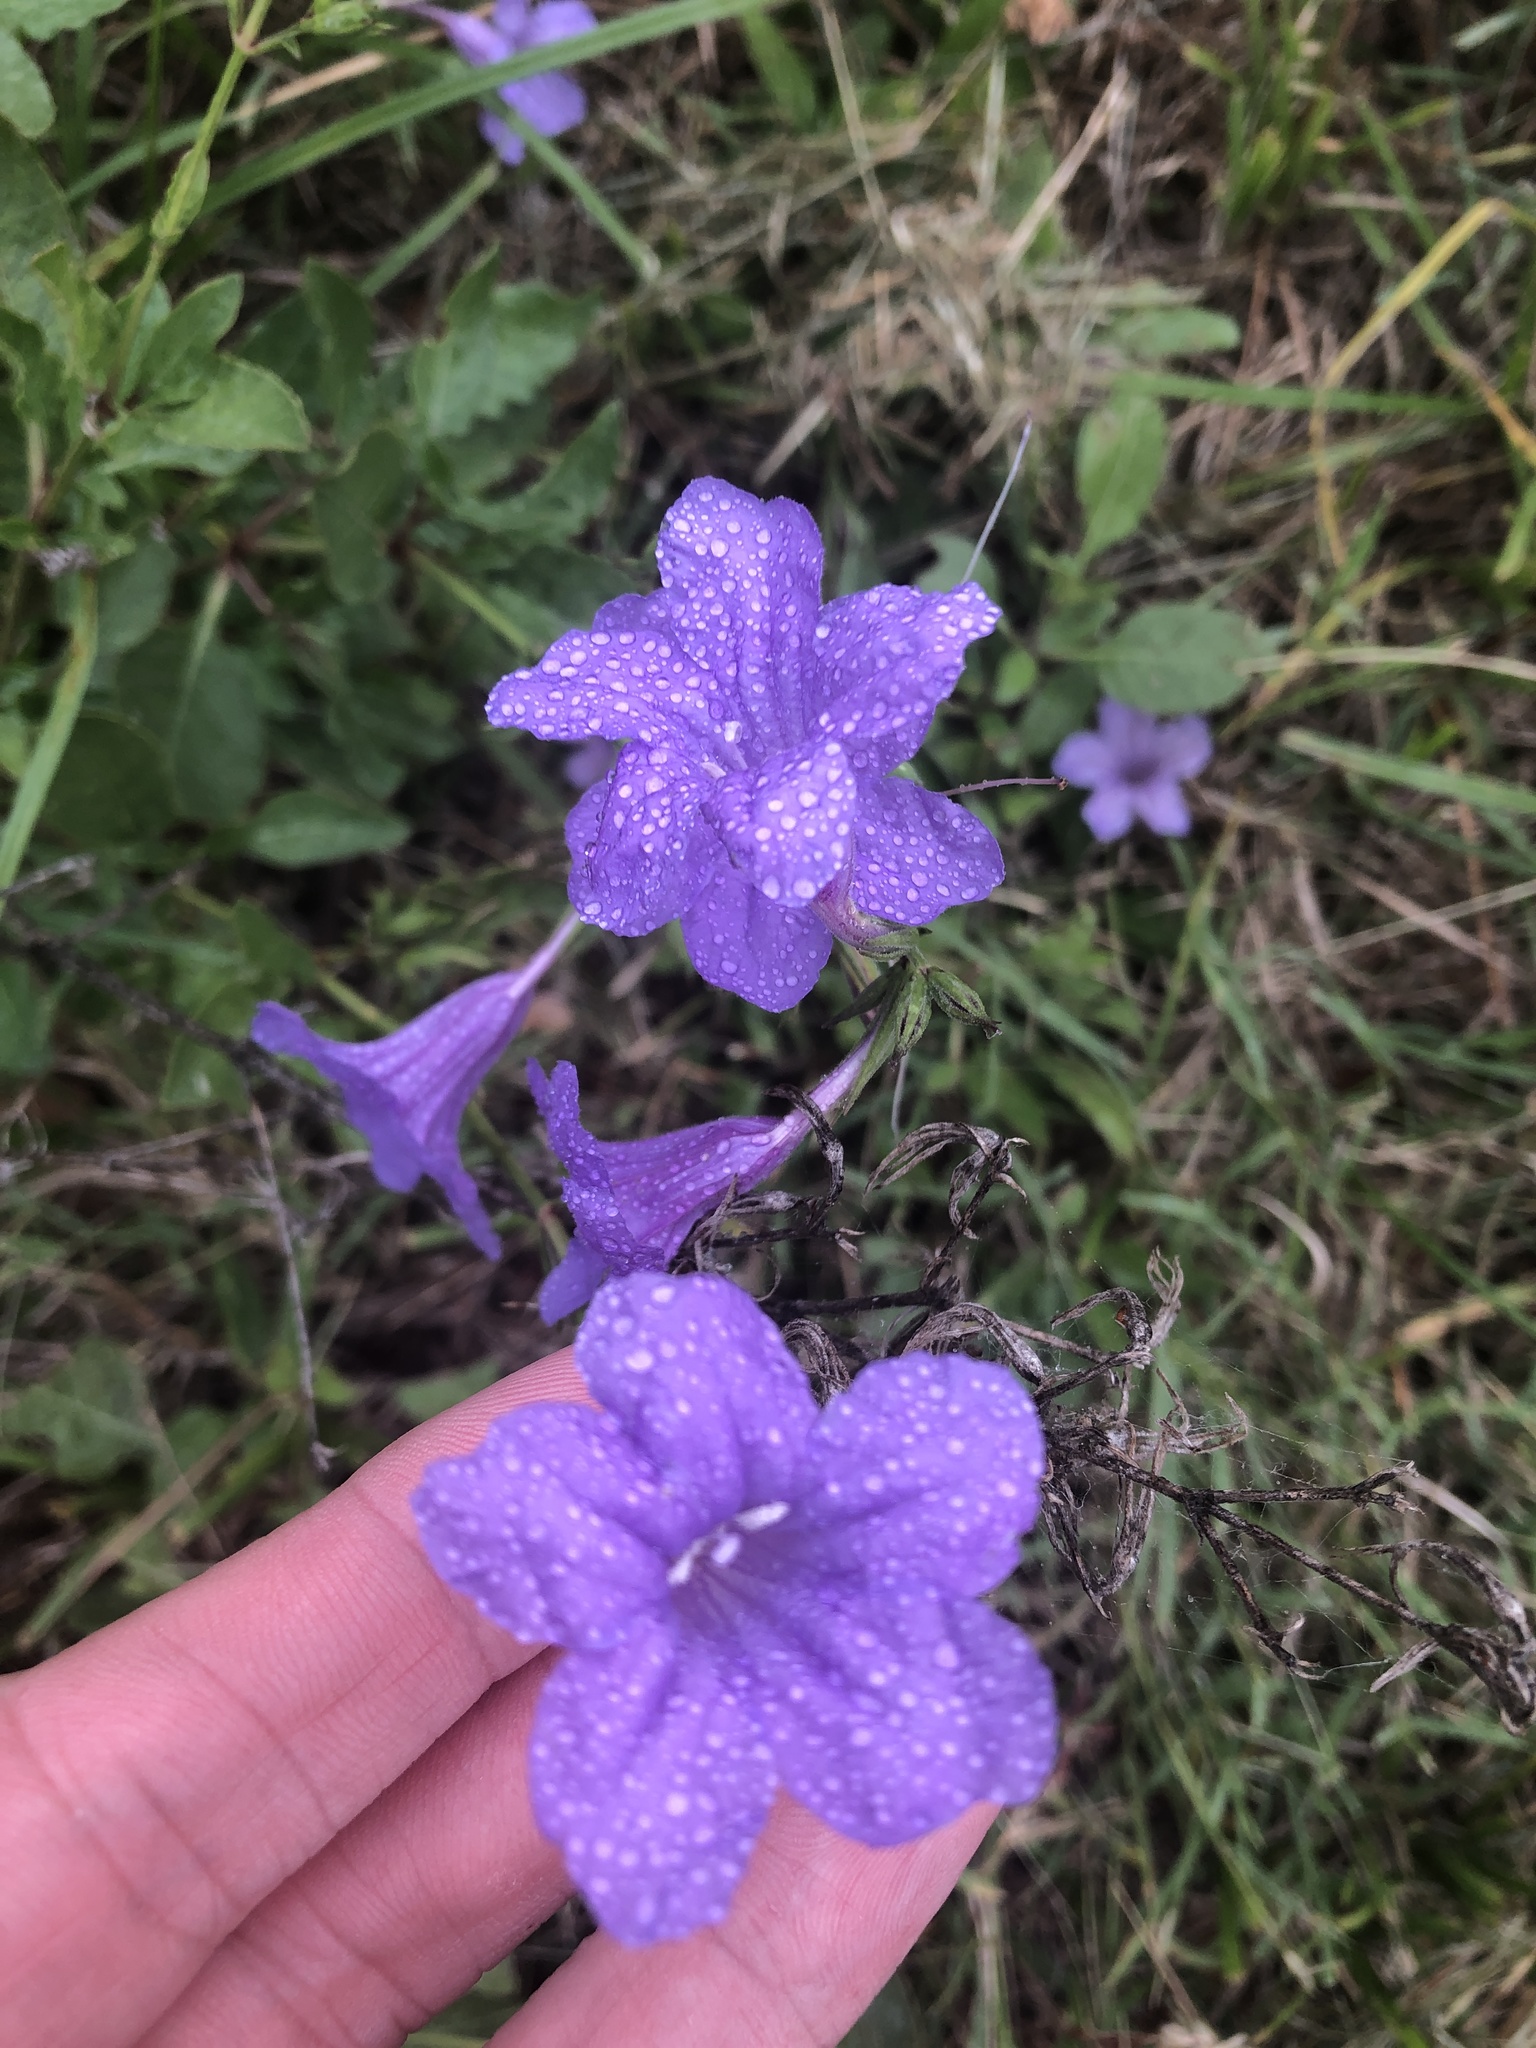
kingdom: Plantae
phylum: Tracheophyta
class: Magnoliopsida
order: Lamiales
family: Acanthaceae
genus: Ruellia
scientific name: Ruellia ciliatiflora
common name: Hairyflower wild petunia
